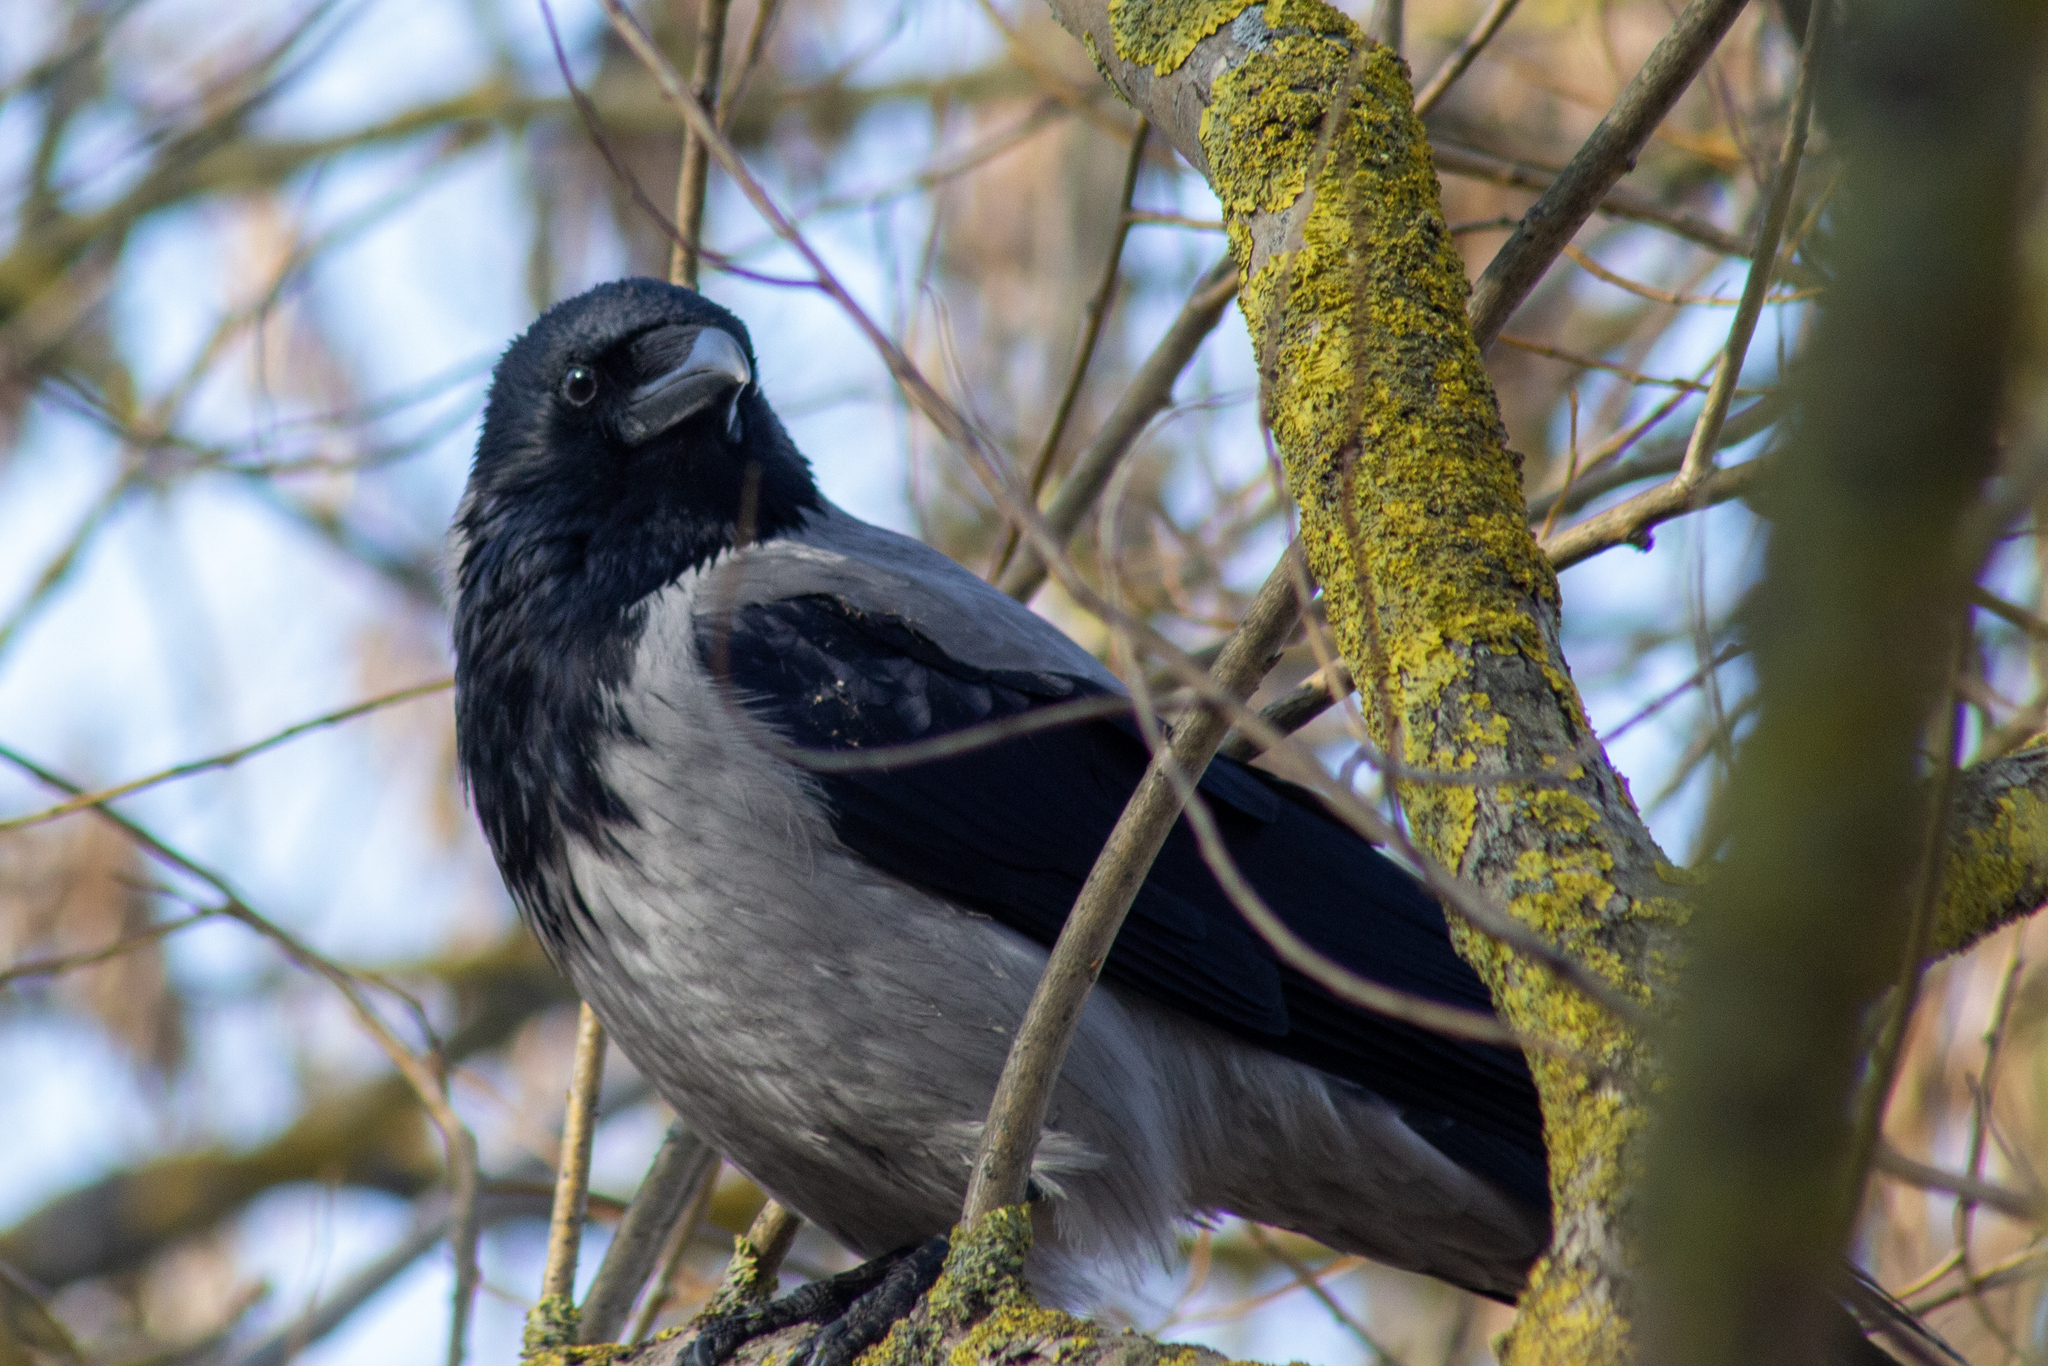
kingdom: Animalia
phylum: Chordata
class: Aves
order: Passeriformes
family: Corvidae
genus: Corvus
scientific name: Corvus cornix
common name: Hooded crow
